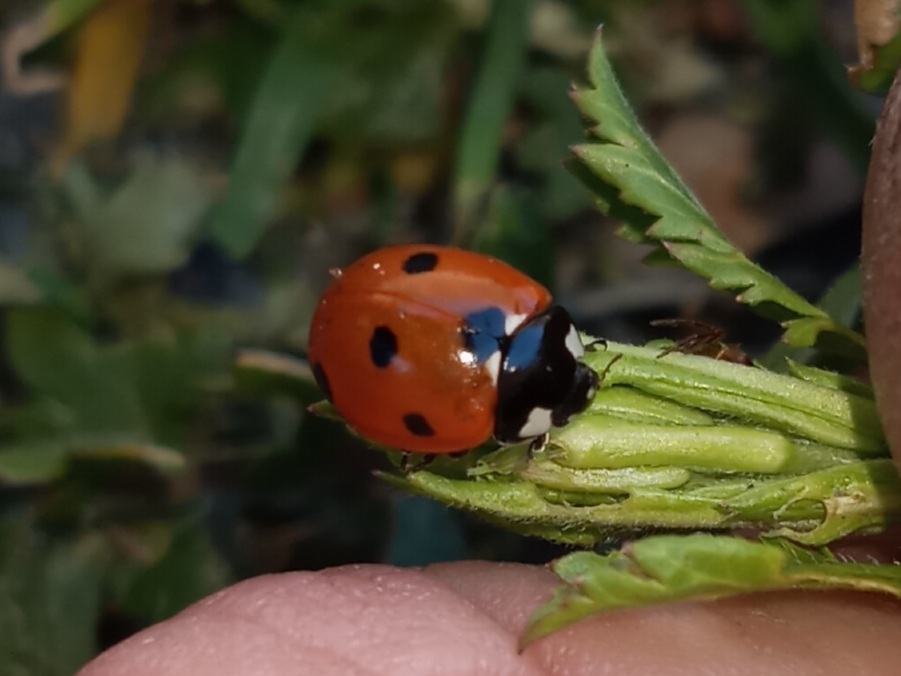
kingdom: Animalia
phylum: Arthropoda
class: Insecta
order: Coleoptera
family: Coccinellidae
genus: Coccinella
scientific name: Coccinella septempunctata
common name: Sevenspotted lady beetle
